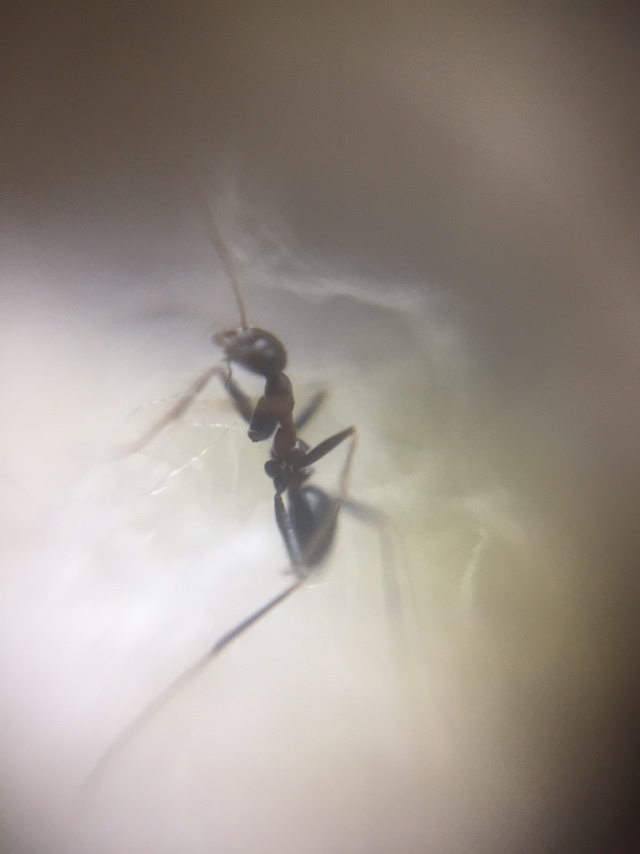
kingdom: Animalia
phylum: Arthropoda
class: Insecta
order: Hymenoptera
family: Formicidae
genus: Lepisiota
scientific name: Lepisiota integra
